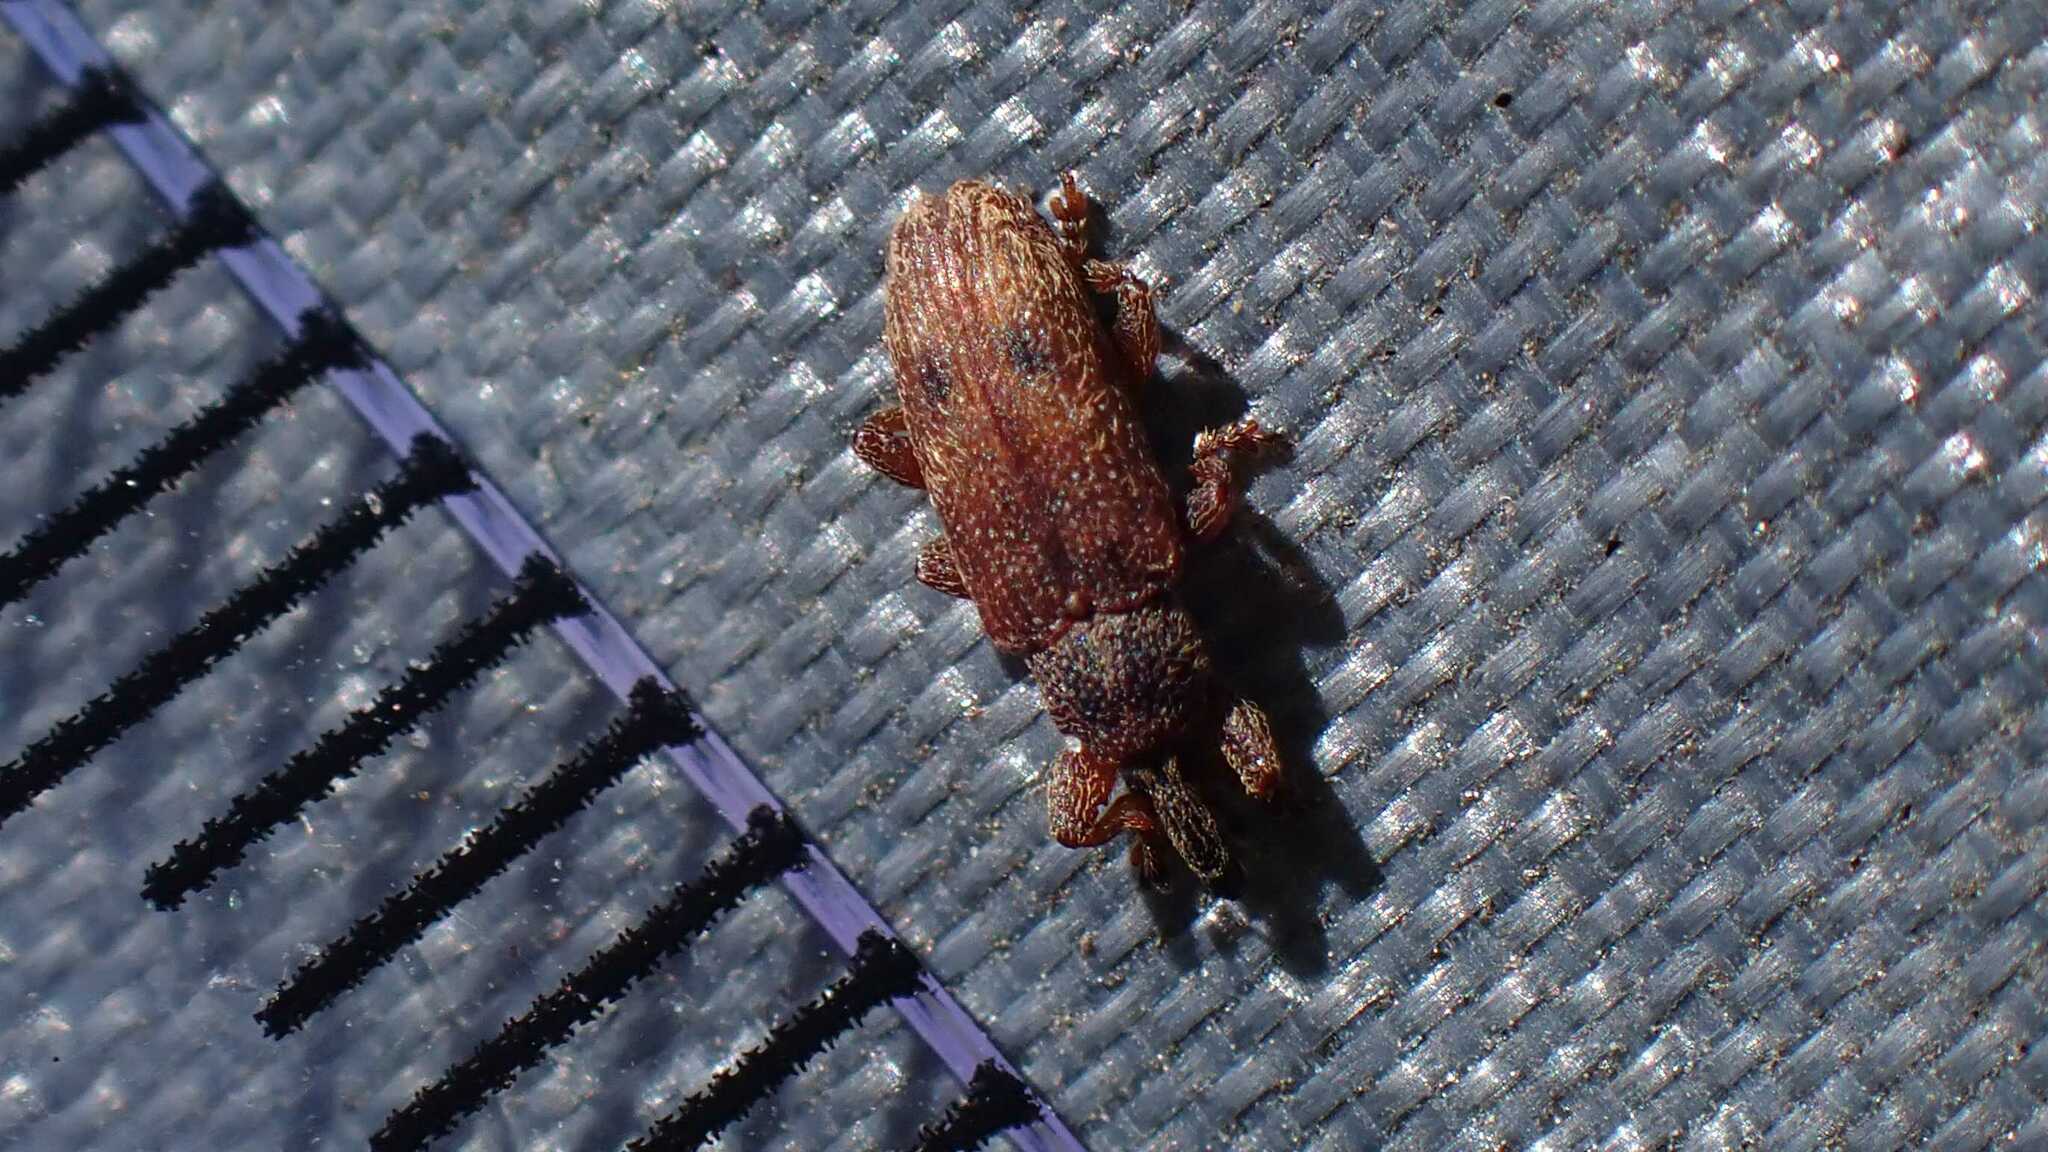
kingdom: Animalia
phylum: Arthropoda
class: Insecta
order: Coleoptera
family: Curculionidae
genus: Bradybatus
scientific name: Bradybatus creutzeri
